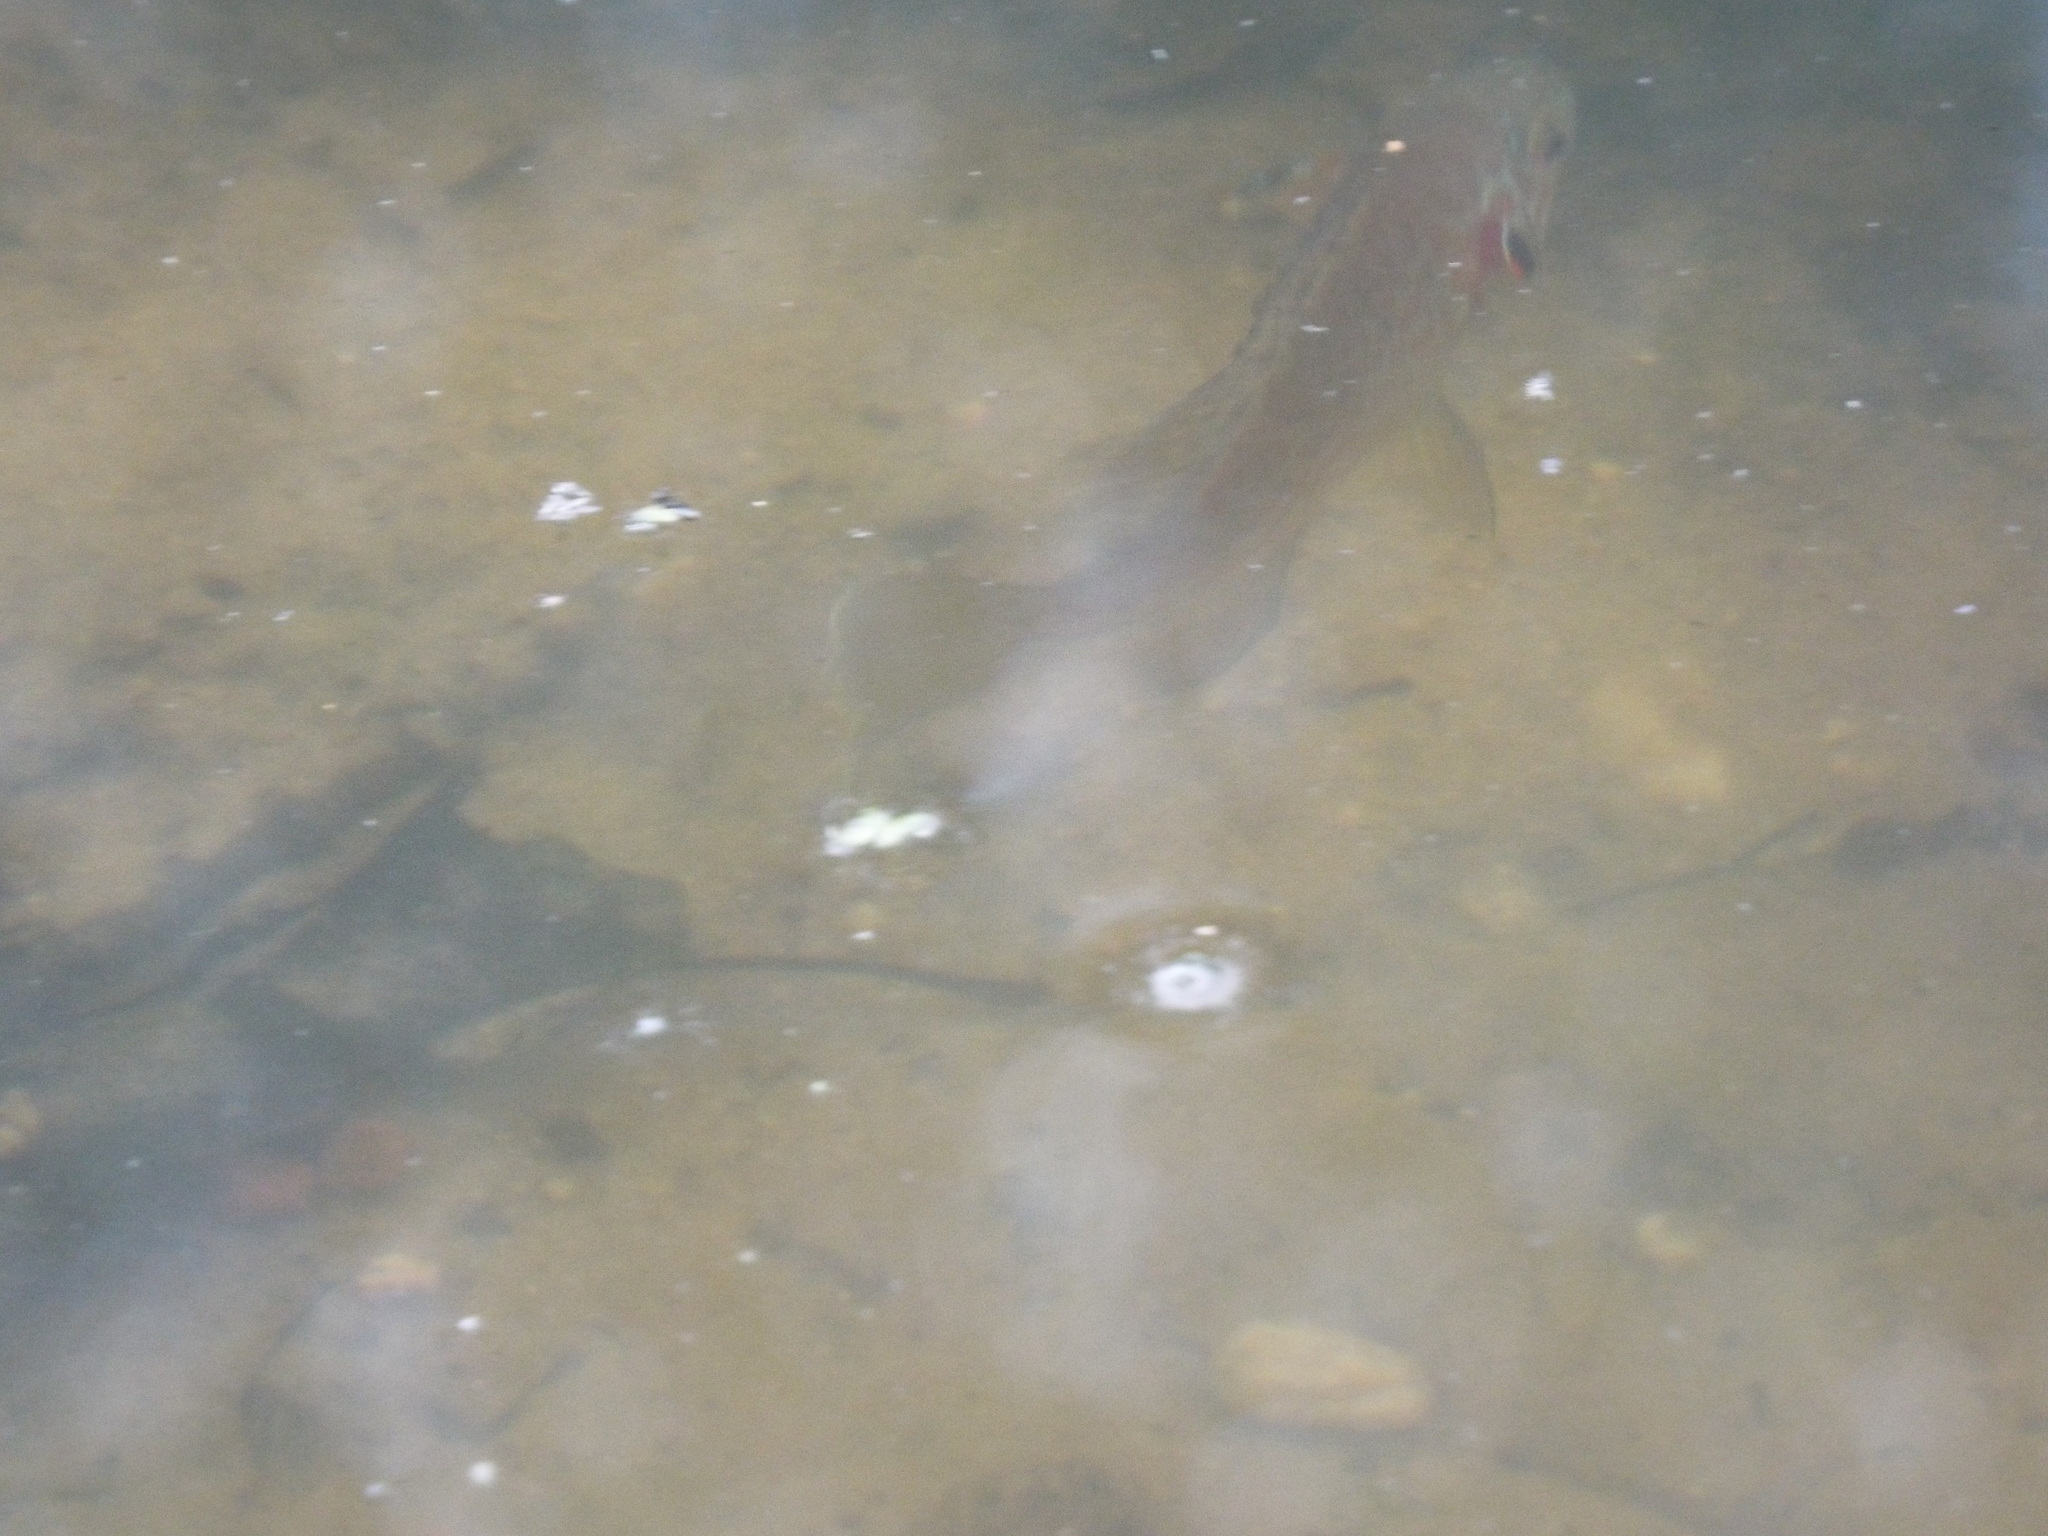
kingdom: Animalia
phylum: Chordata
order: Perciformes
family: Centrarchidae
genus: Lepomis
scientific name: Lepomis gibbosus
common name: Pumpkinseed
